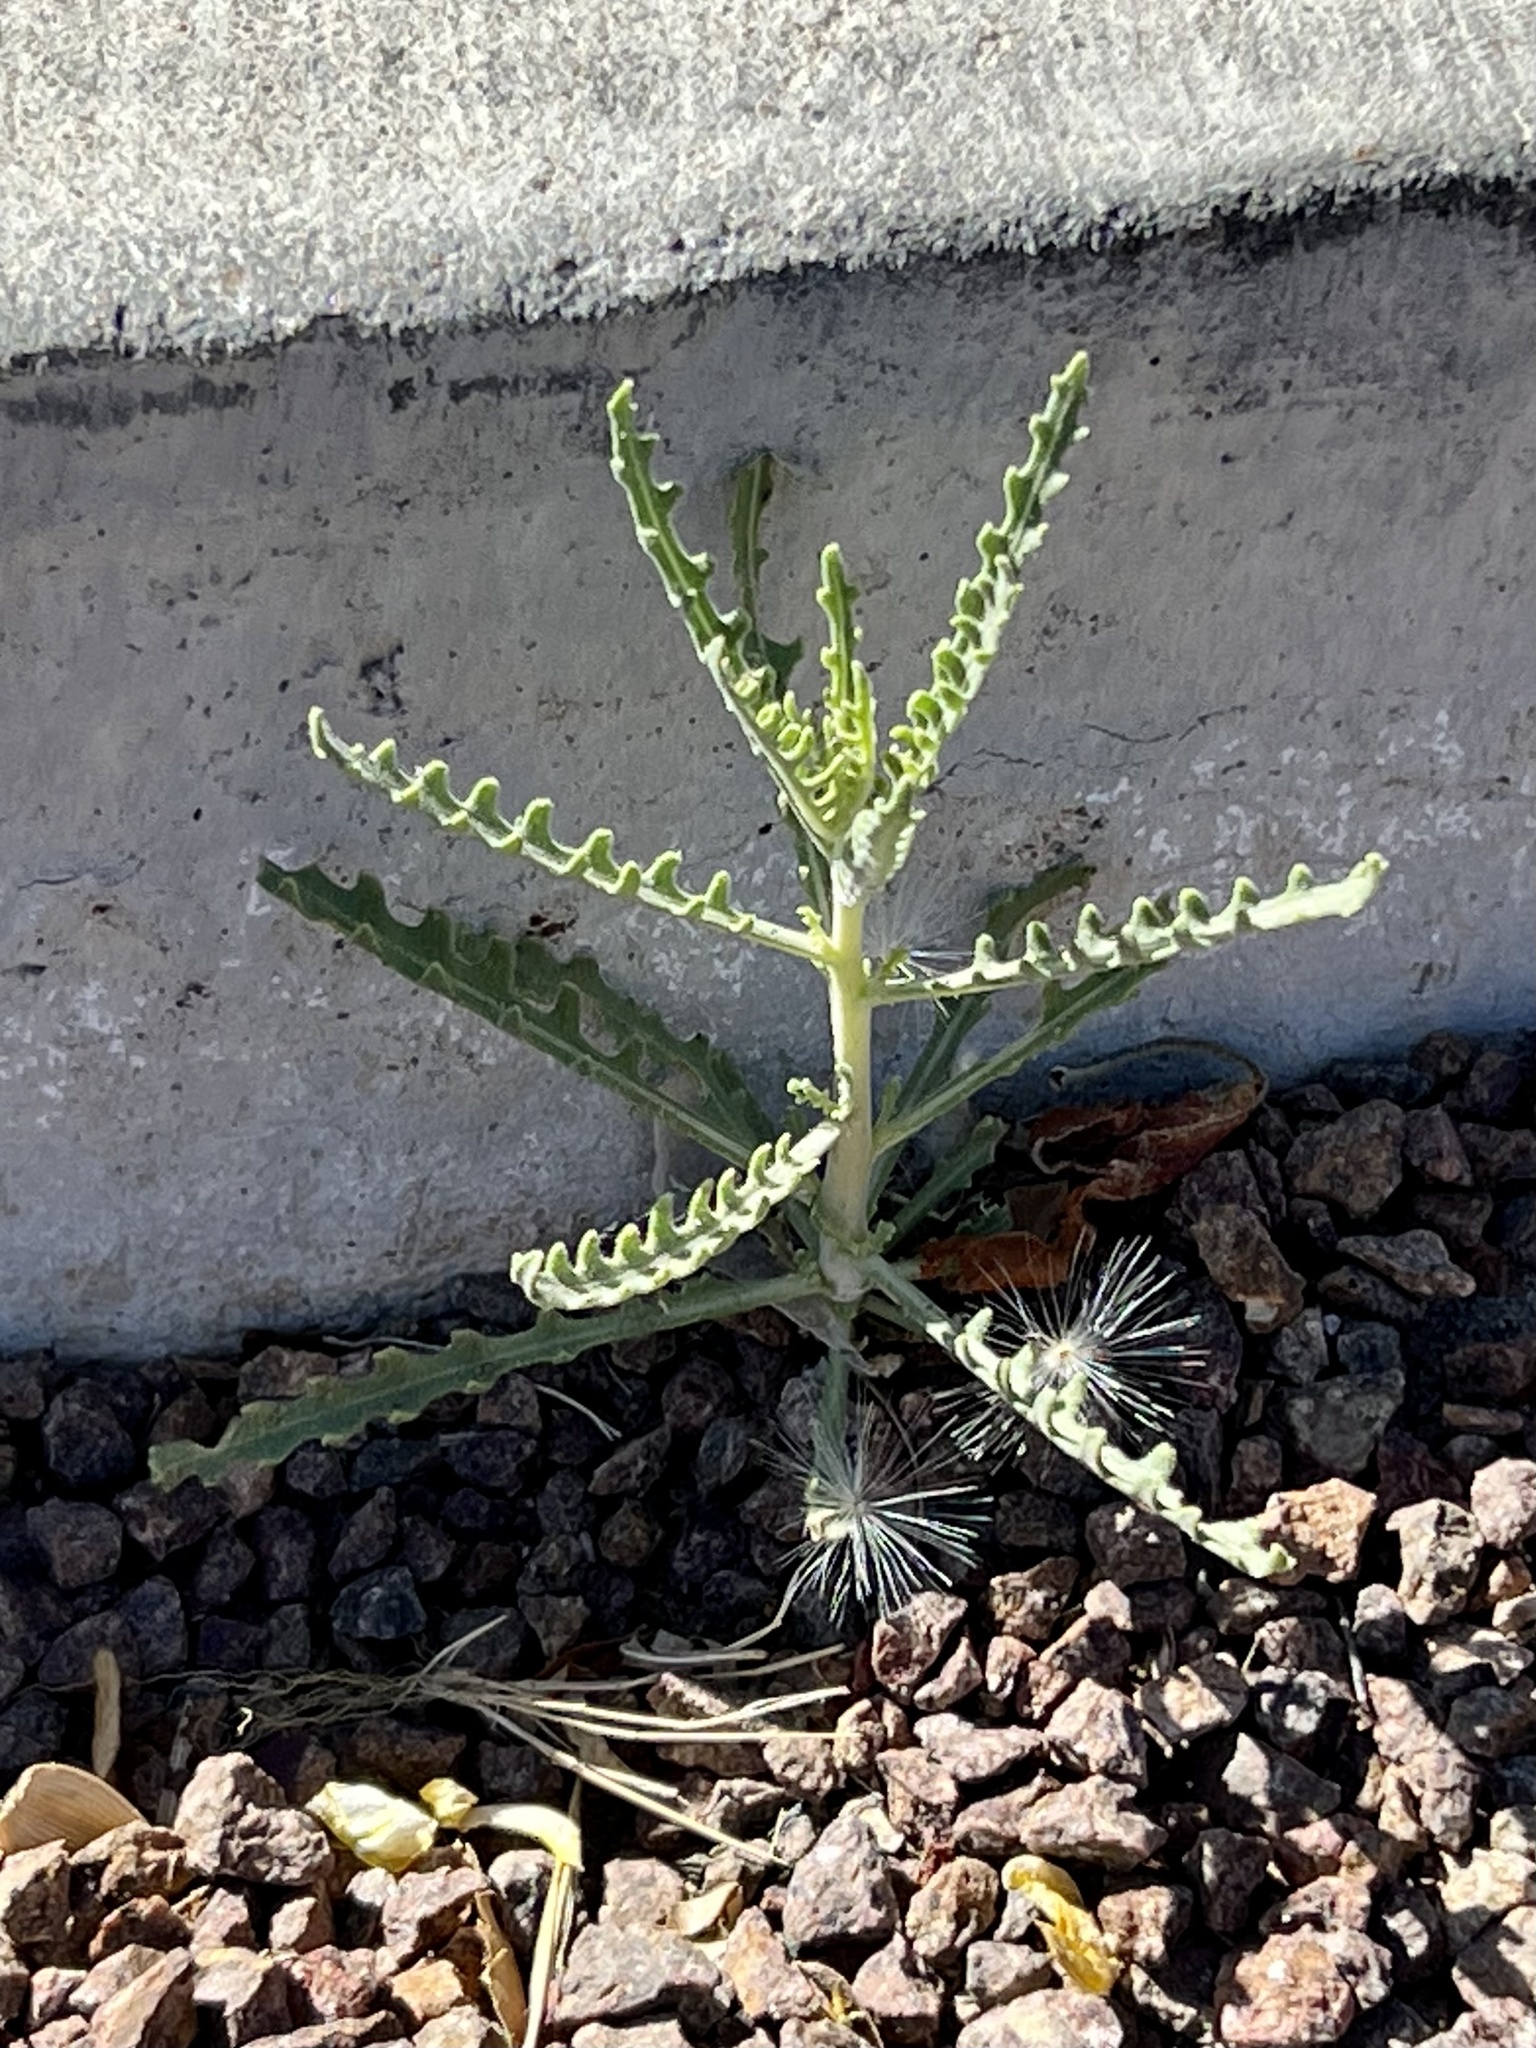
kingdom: Plantae
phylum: Tracheophyta
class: Magnoliopsida
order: Cornales
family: Loasaceae
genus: Mentzelia
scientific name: Mentzelia multiflora
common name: Adonis blazingstar
